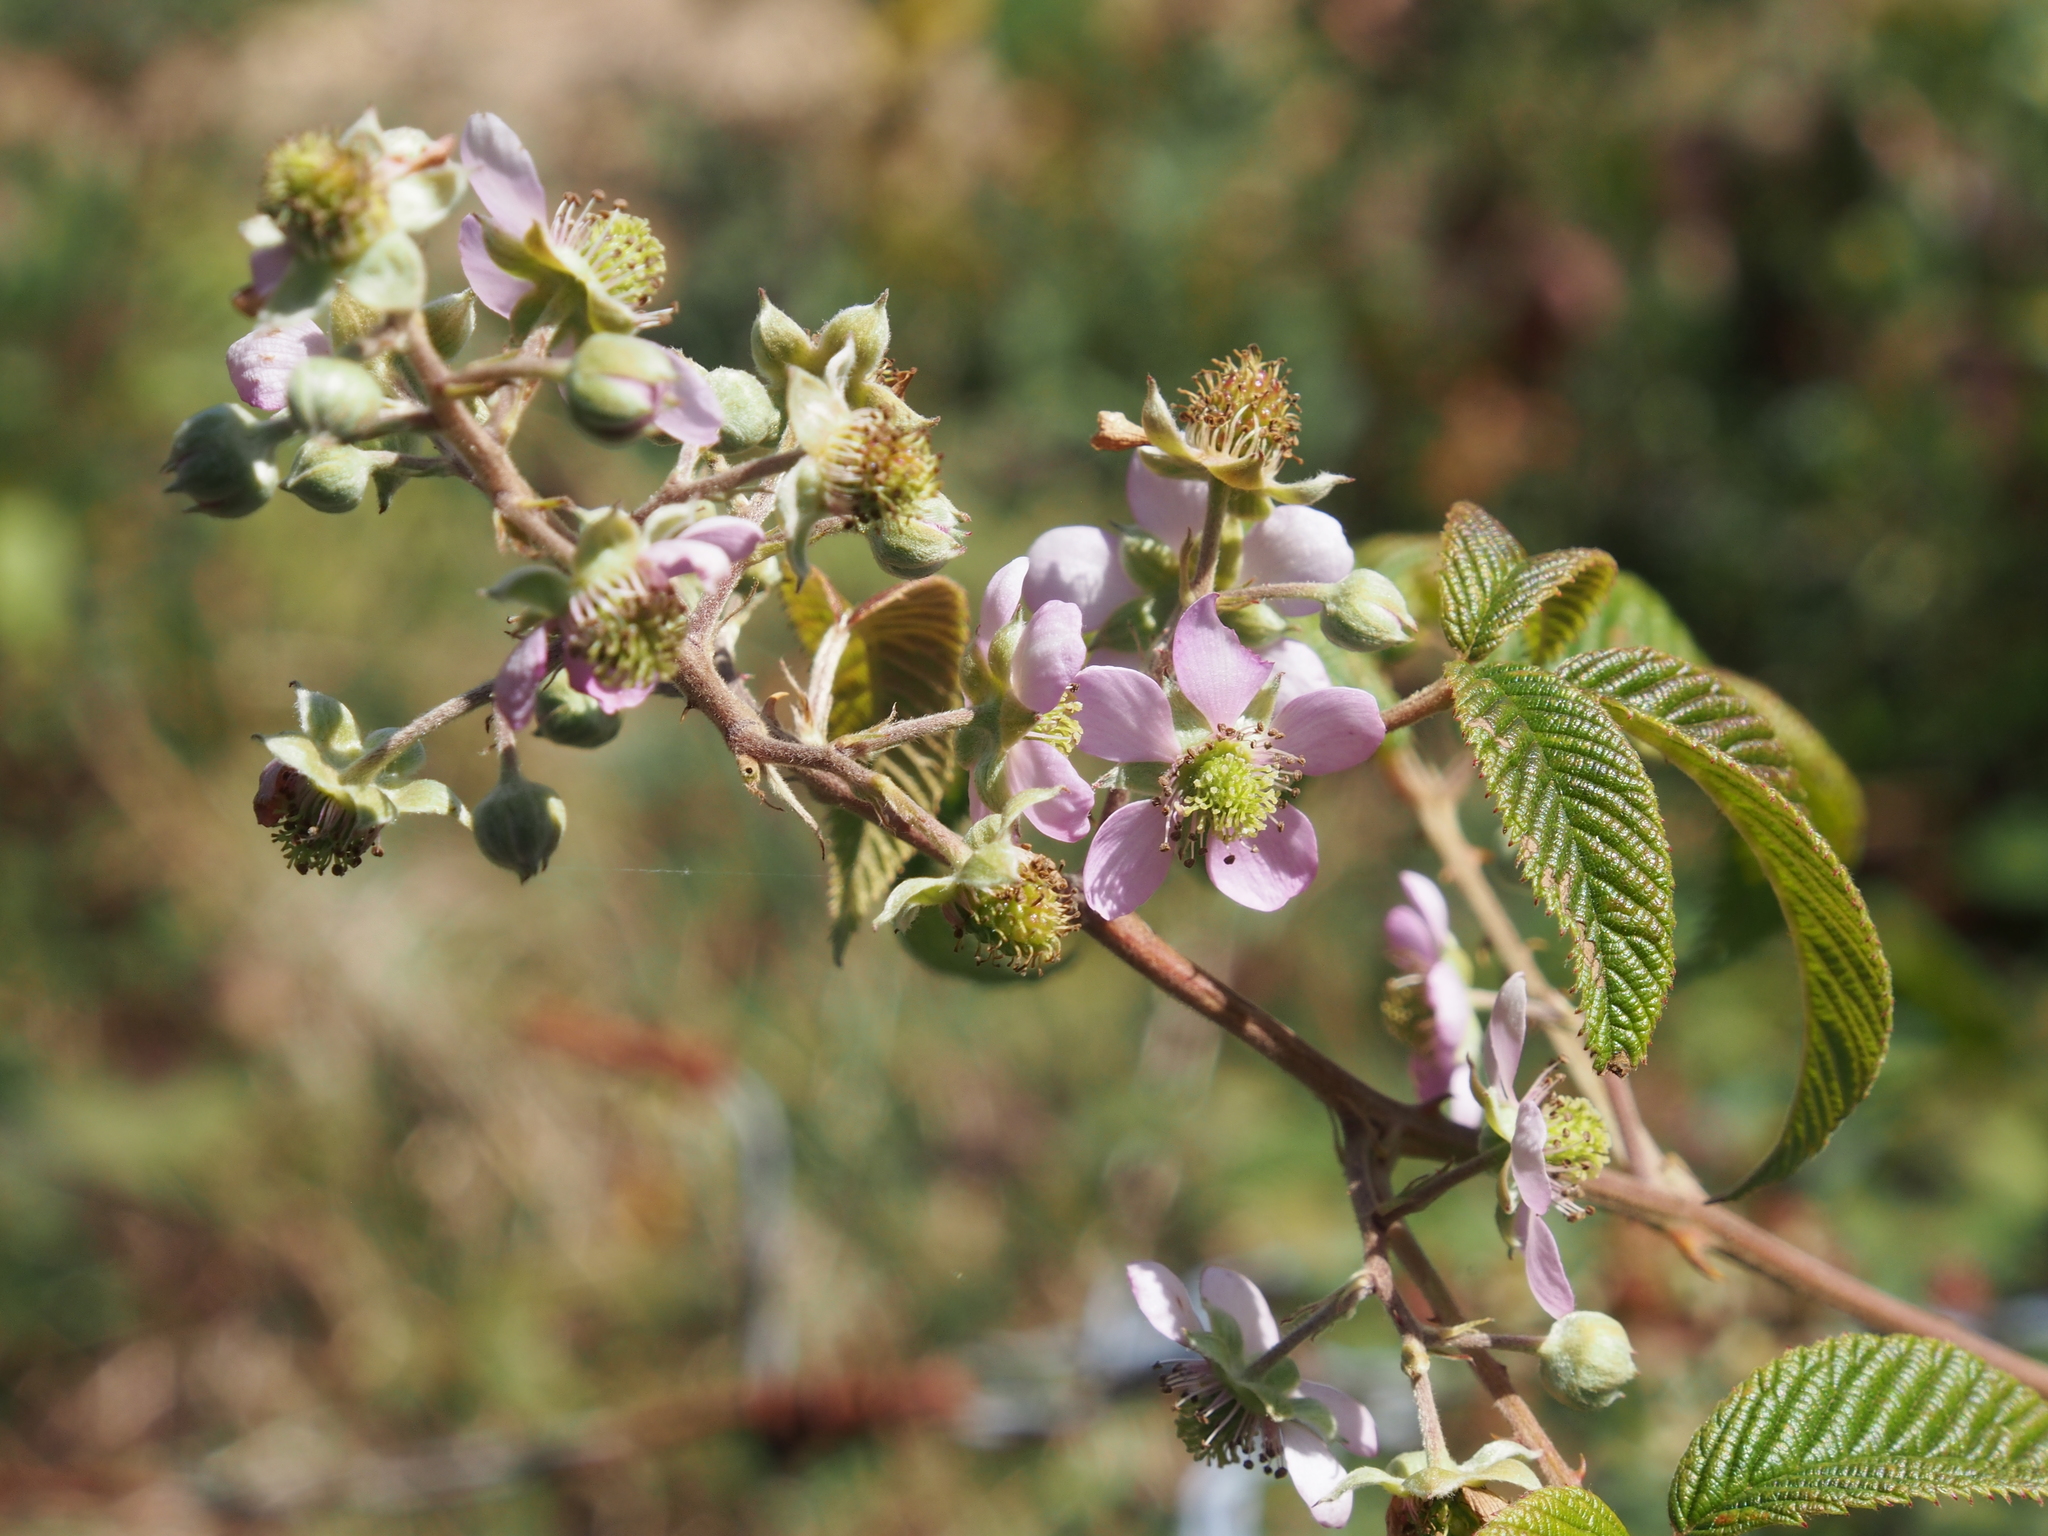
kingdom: Plantae
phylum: Tracheophyta
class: Magnoliopsida
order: Rosales
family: Rosaceae
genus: Rubus
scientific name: Rubus glaucus
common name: Andean blackberry
